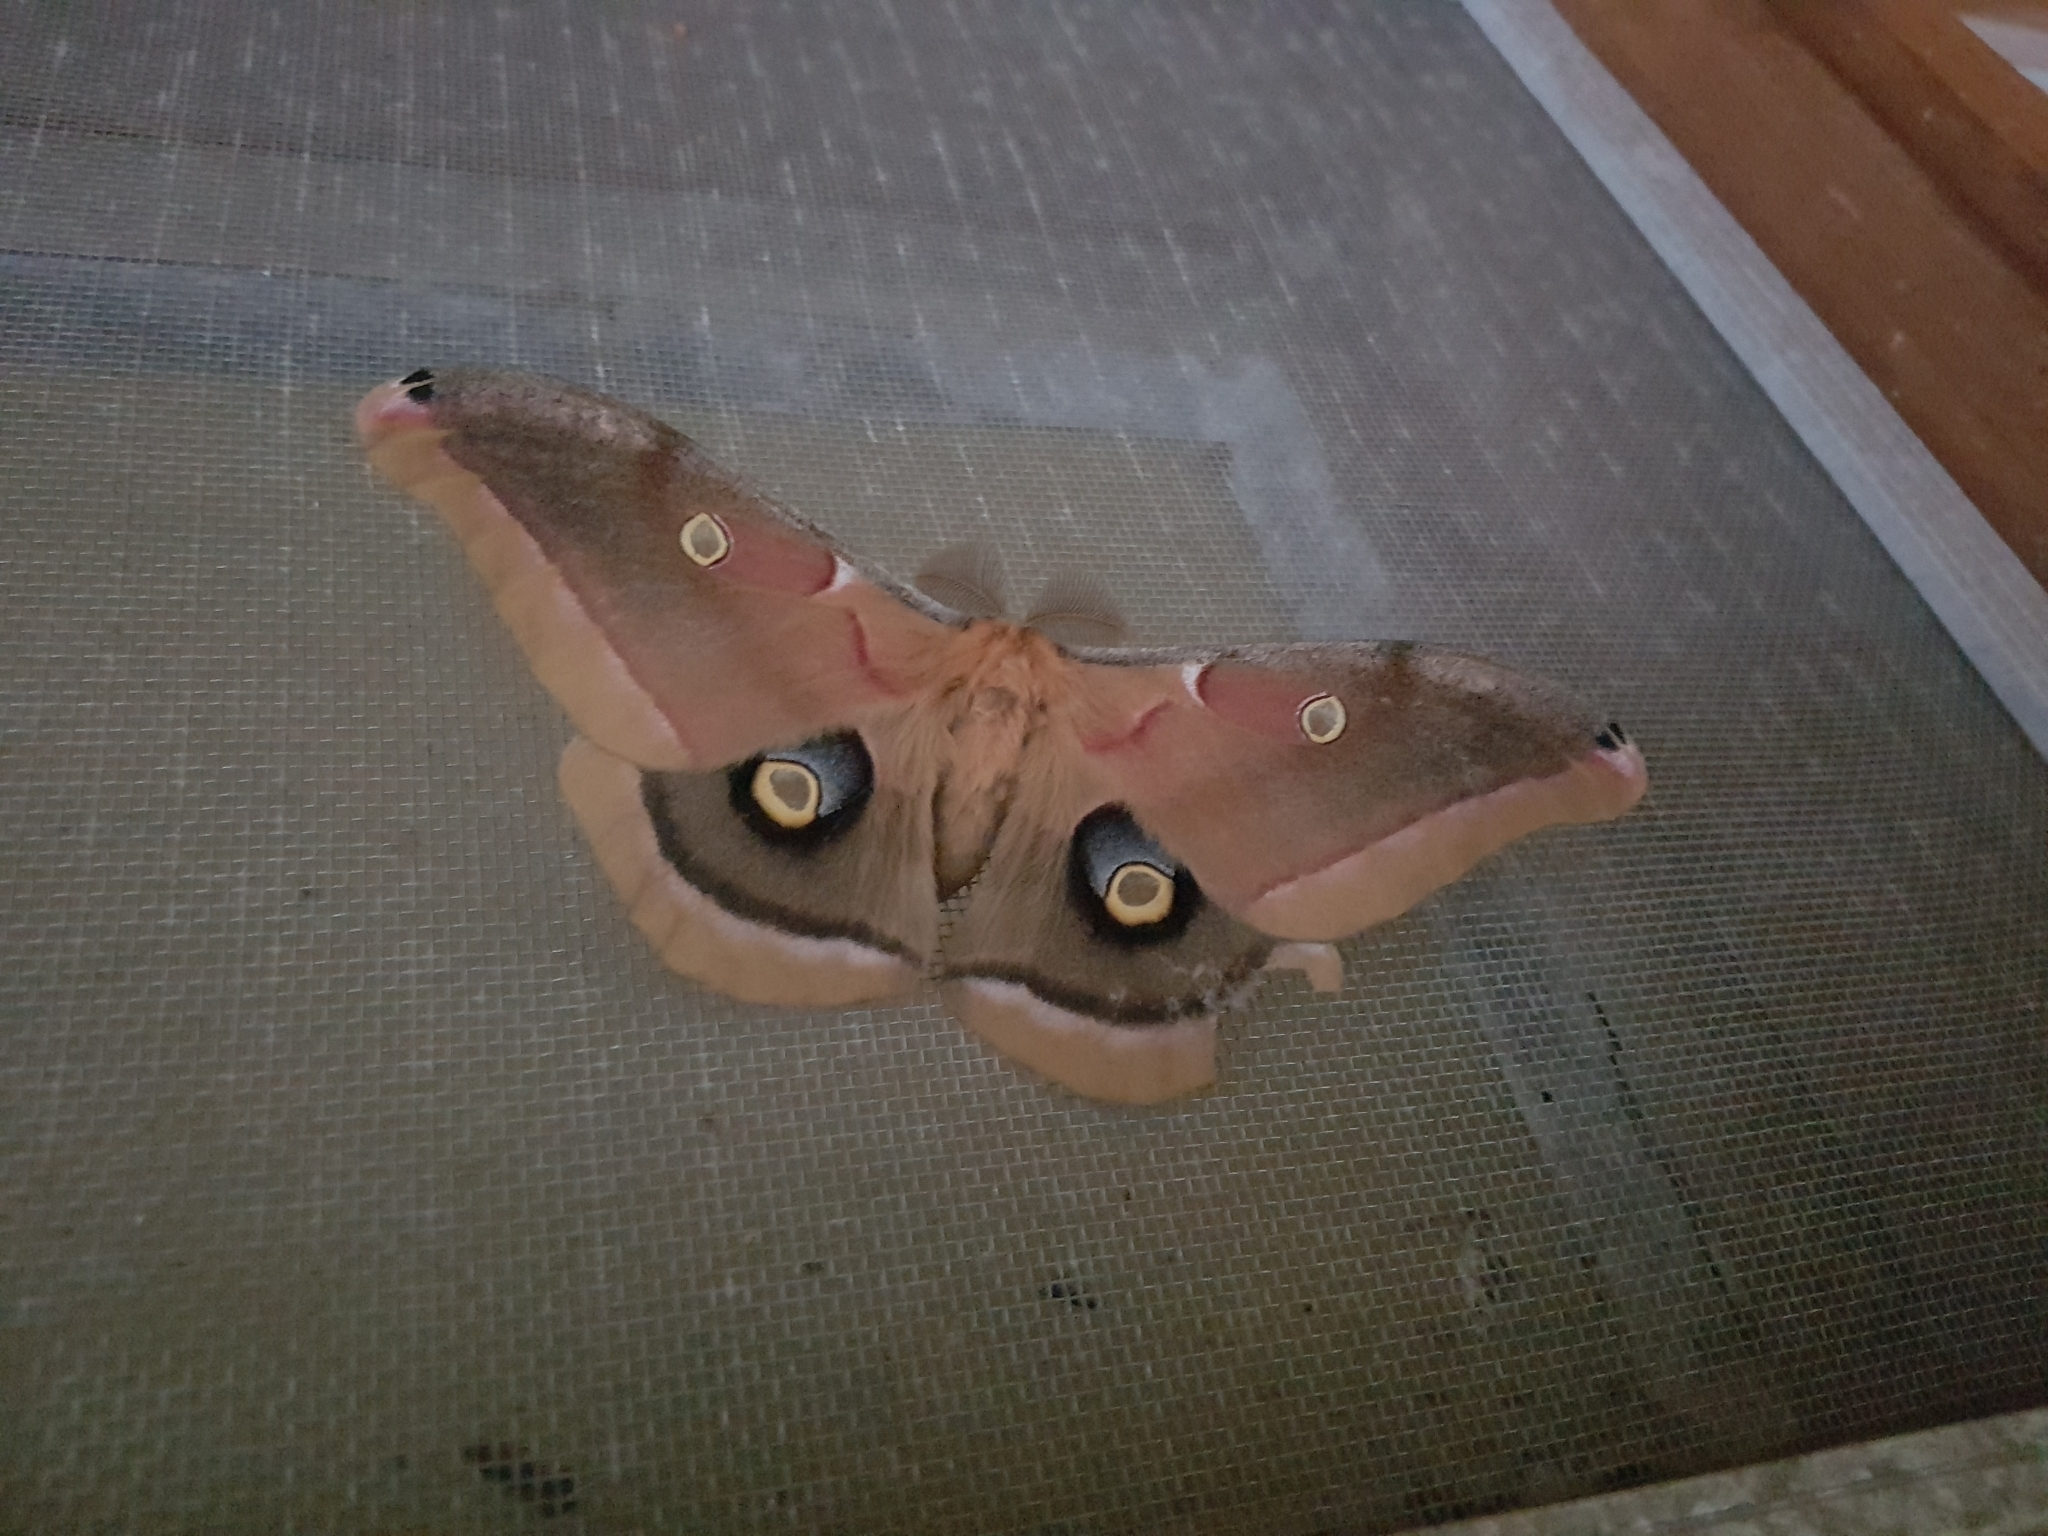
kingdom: Animalia
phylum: Arthropoda
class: Insecta
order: Lepidoptera
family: Saturniidae
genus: Antheraea
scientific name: Antheraea polyphemus
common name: Polyphemus moth
